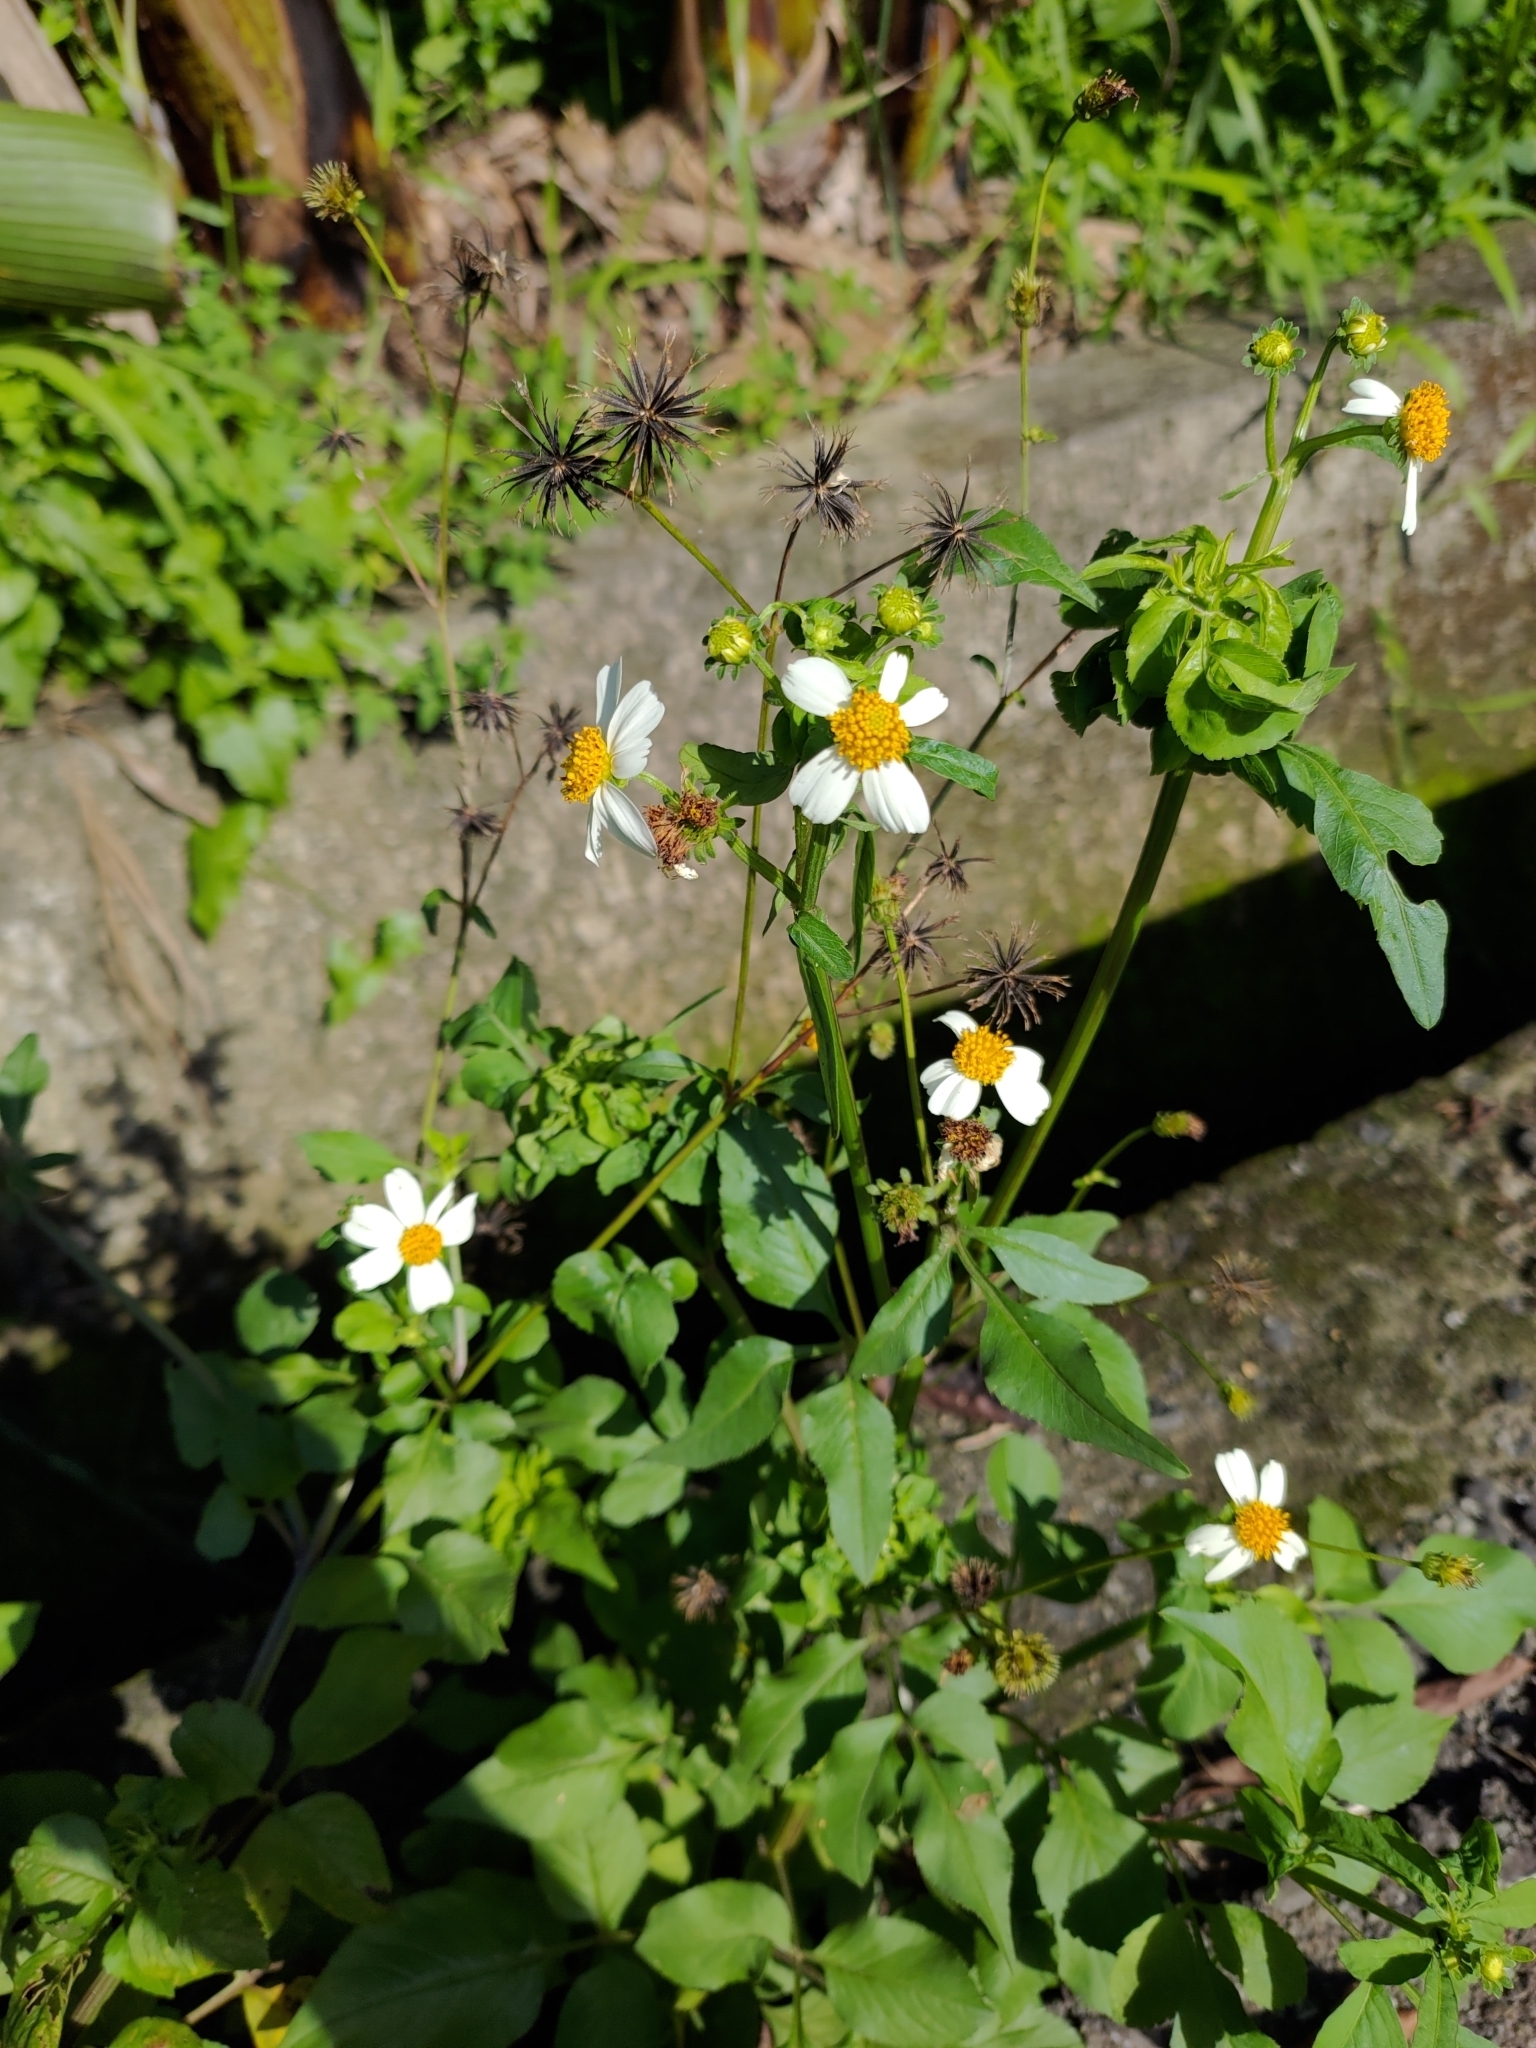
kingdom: Plantae
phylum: Tracheophyta
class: Magnoliopsida
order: Asterales
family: Asteraceae
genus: Bidens
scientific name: Bidens alba
